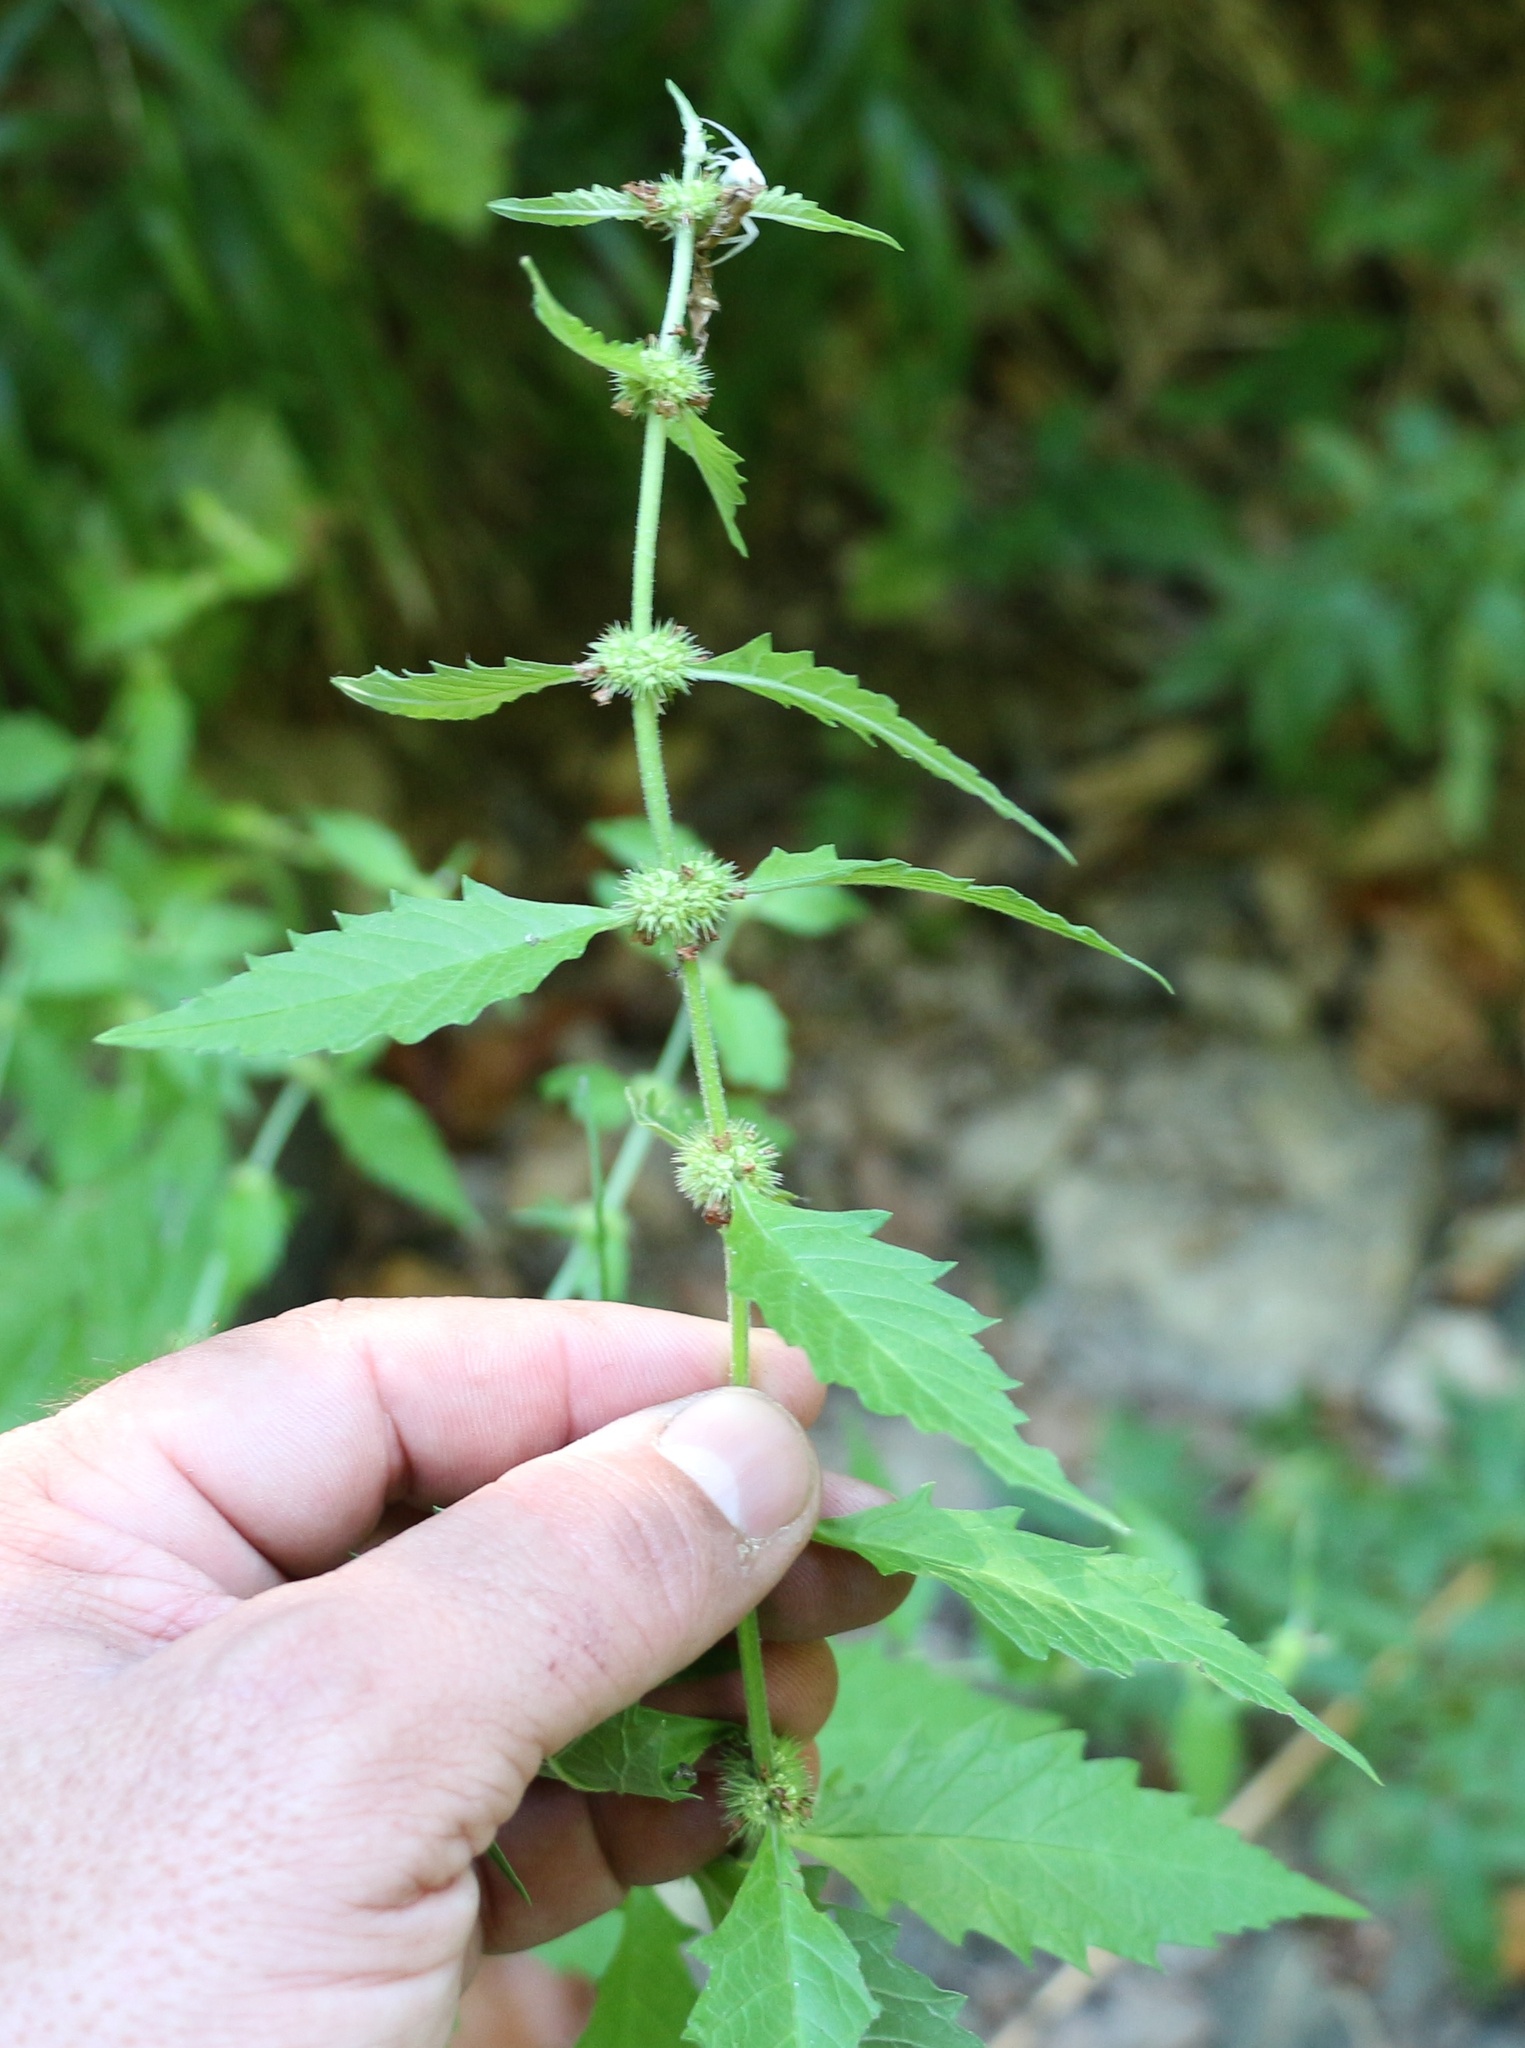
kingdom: Plantae
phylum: Tracheophyta
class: Magnoliopsida
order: Lamiales
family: Lamiaceae
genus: Lycopus
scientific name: Lycopus europaeus
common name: European bugleweed
